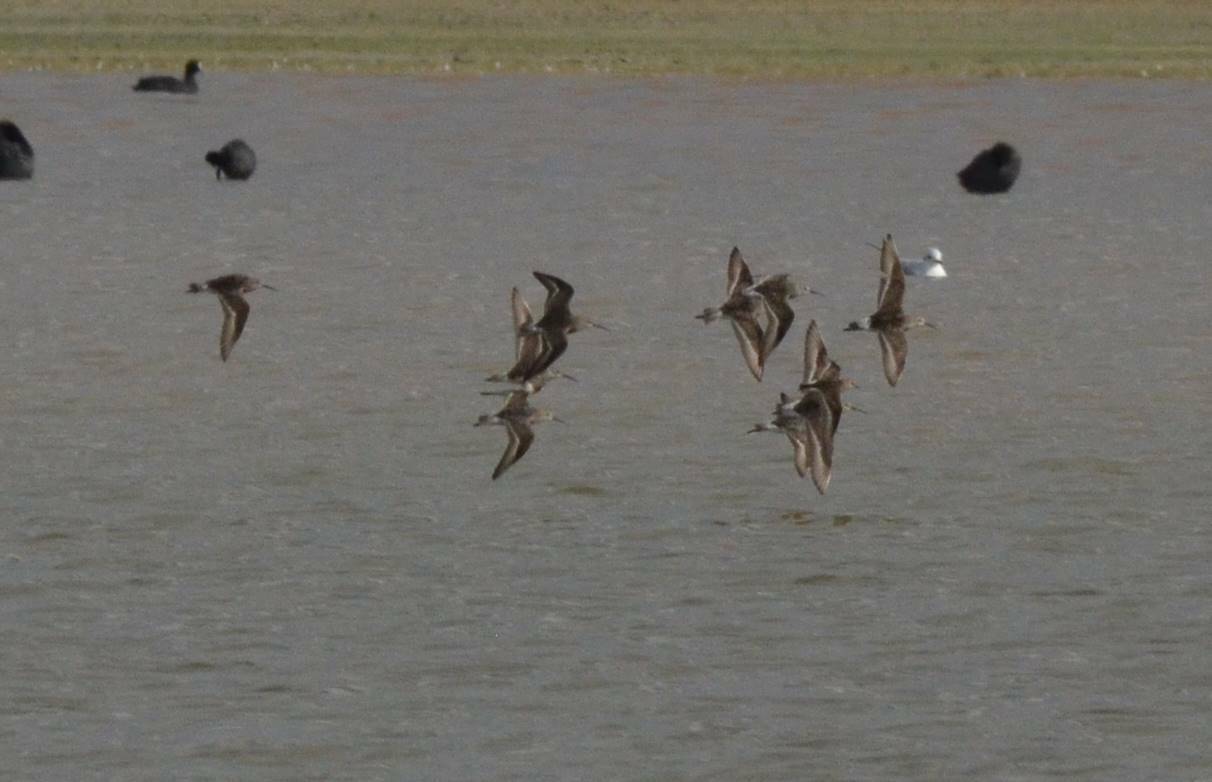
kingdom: Animalia
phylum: Chordata
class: Aves
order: Charadriiformes
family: Scolopacidae
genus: Calidris
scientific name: Calidris ferruginea
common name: Curlew sandpiper
